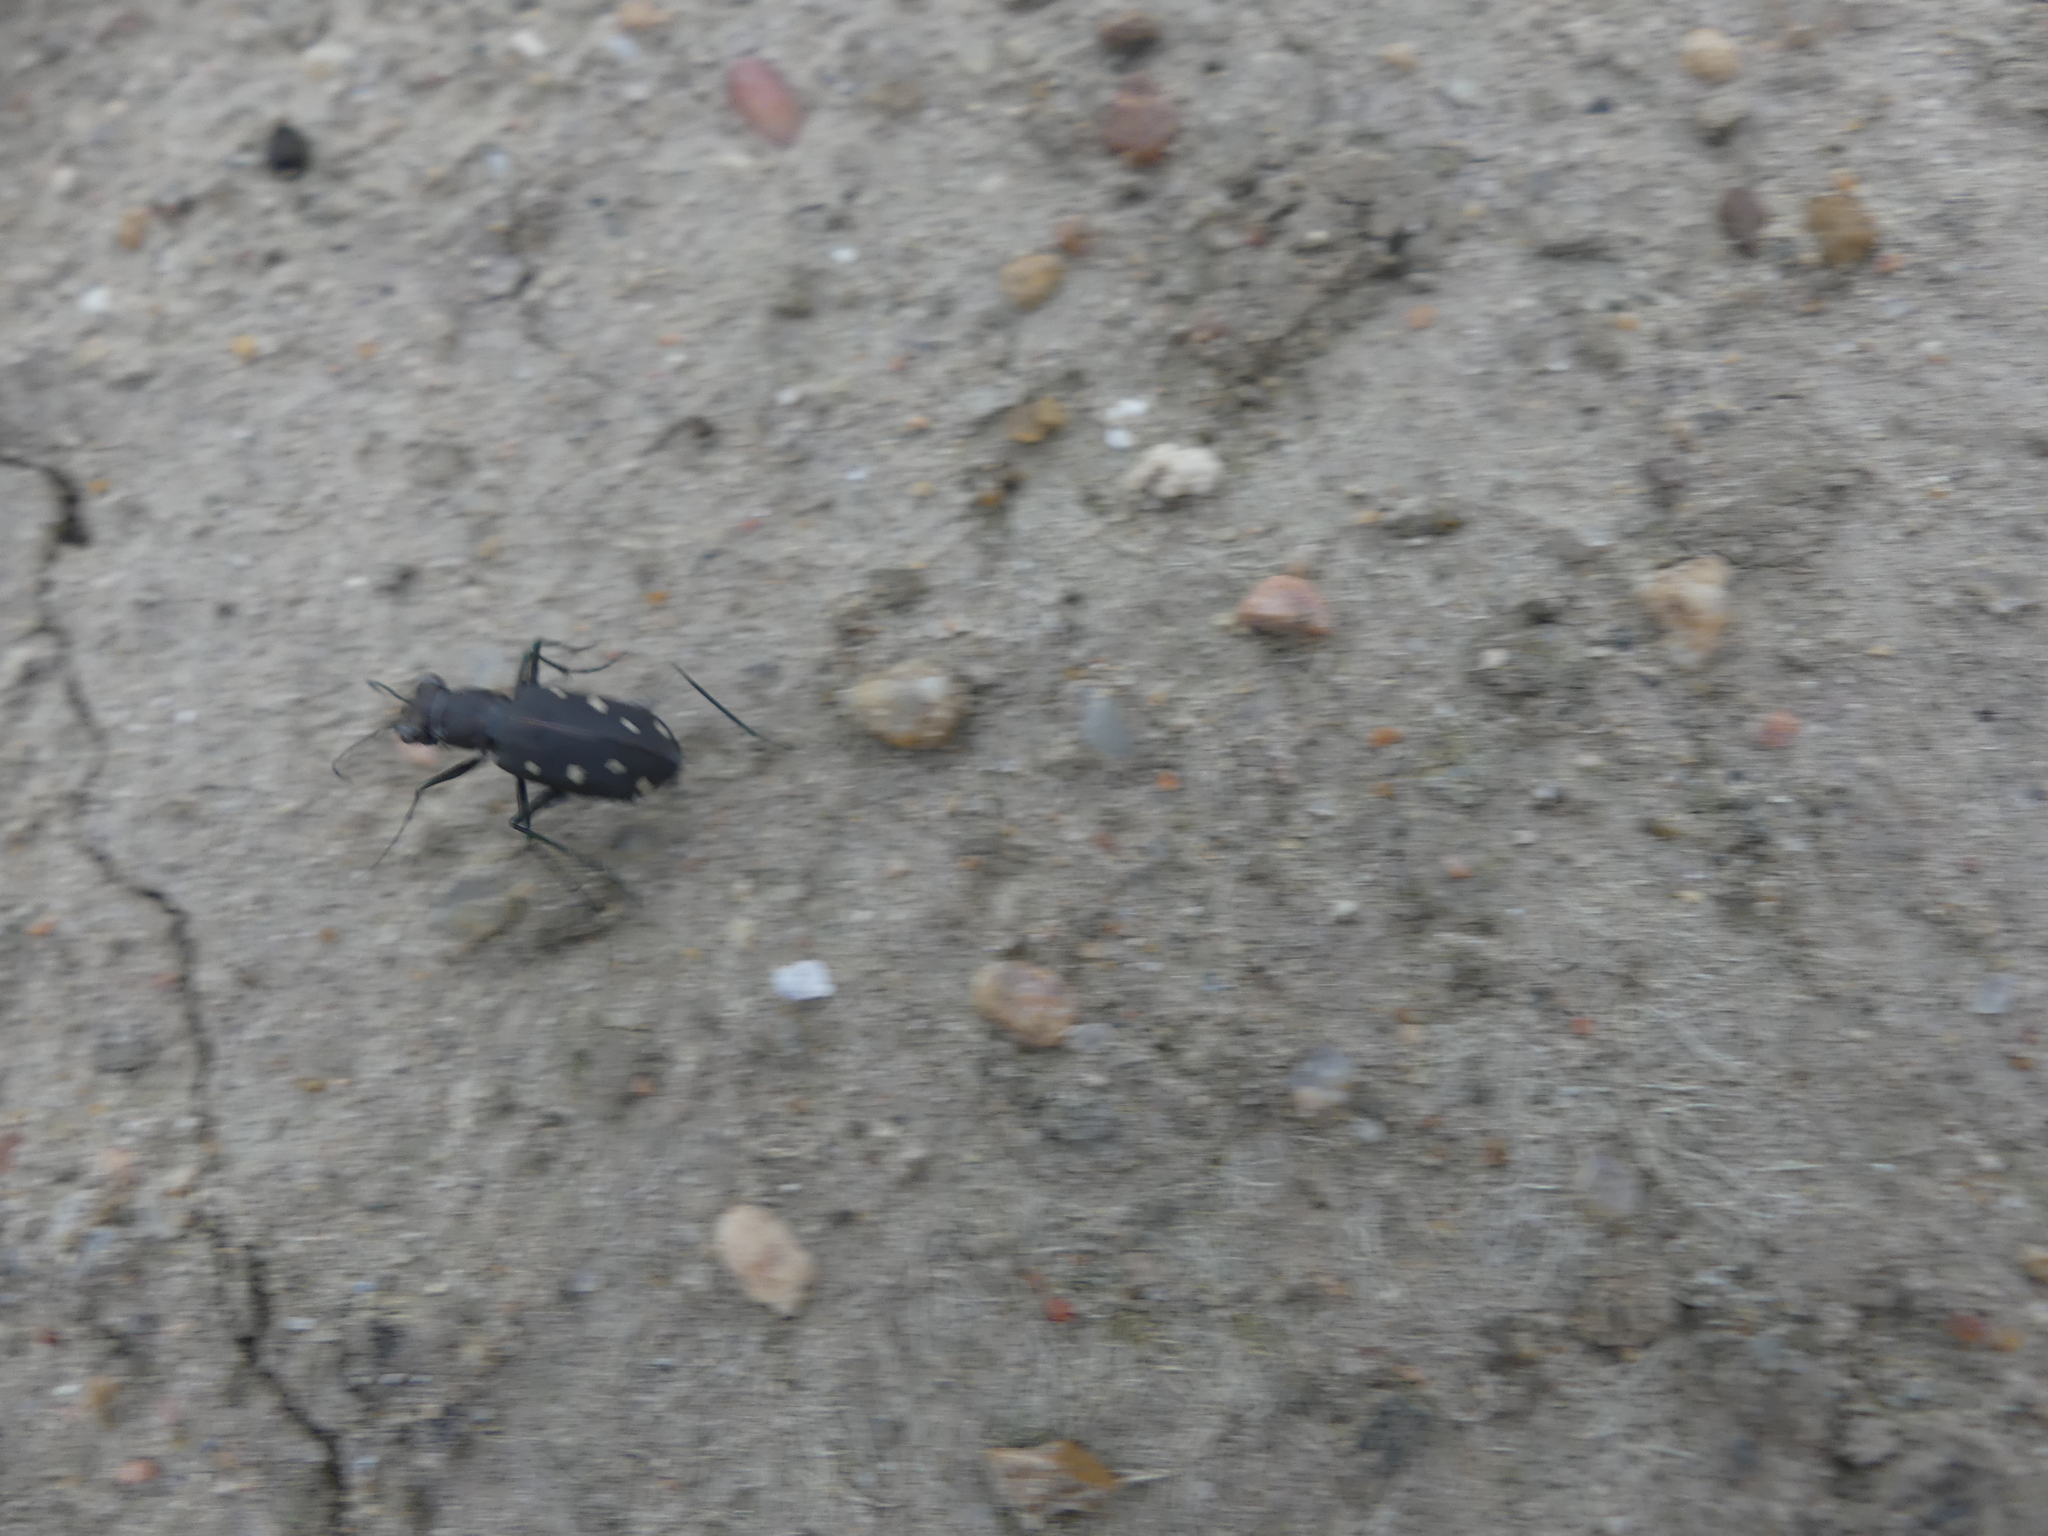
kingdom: Animalia
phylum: Arthropoda
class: Insecta
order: Coleoptera
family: Carabidae
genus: Cicindela
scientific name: Cicindela ocellata
